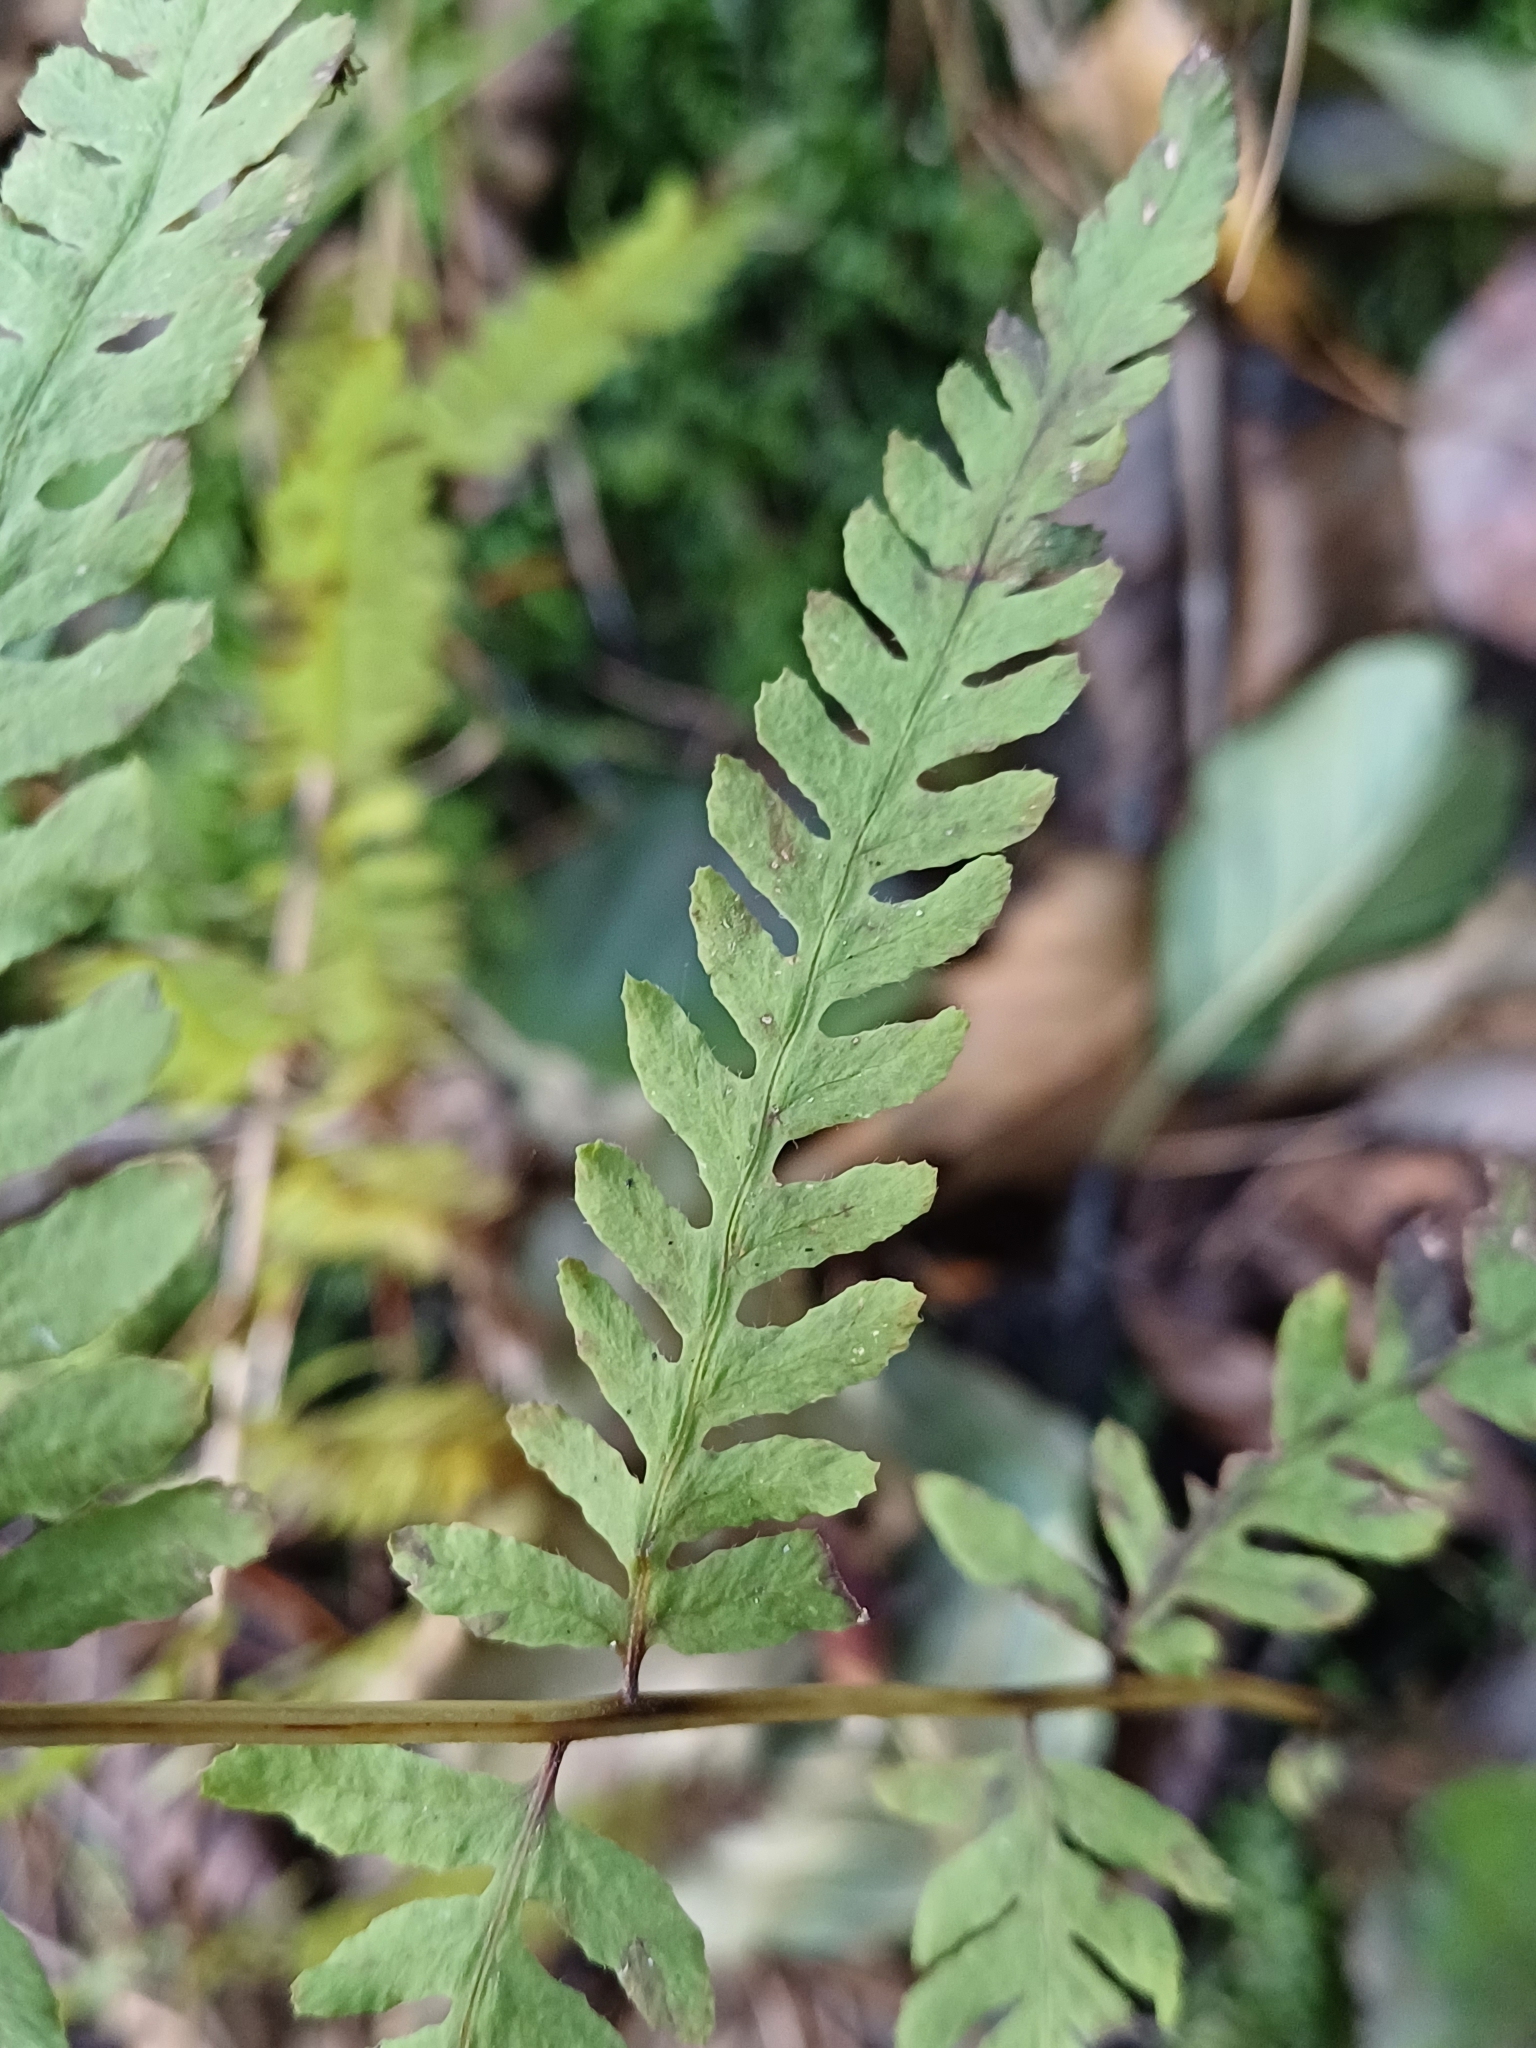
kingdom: Plantae
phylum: Tracheophyta
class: Polypodiopsida
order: Polypodiales
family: Thelypteridaceae
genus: Thelypteris
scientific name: Thelypteris palustris
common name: Marsh fern
